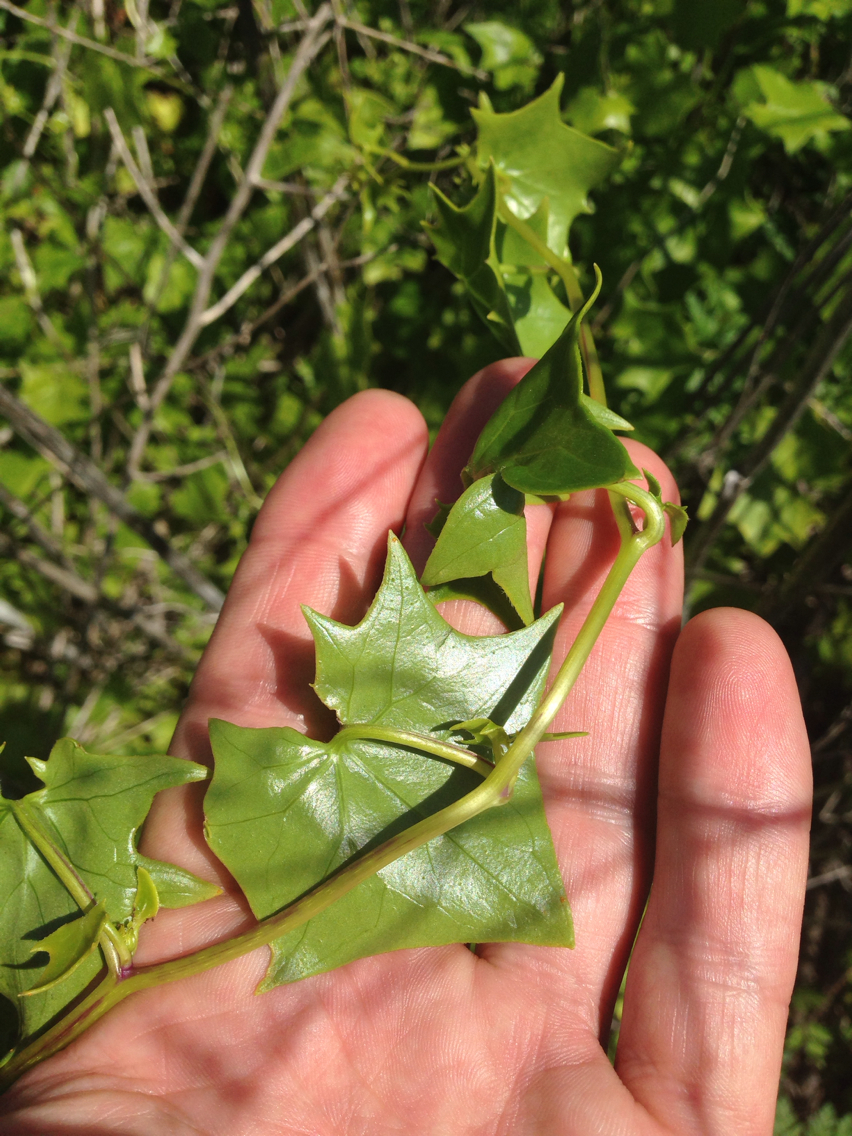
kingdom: Plantae
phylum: Tracheophyta
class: Magnoliopsida
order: Asterales
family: Asteraceae
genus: Delairea
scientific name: Delairea odorata
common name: Cape-ivy
